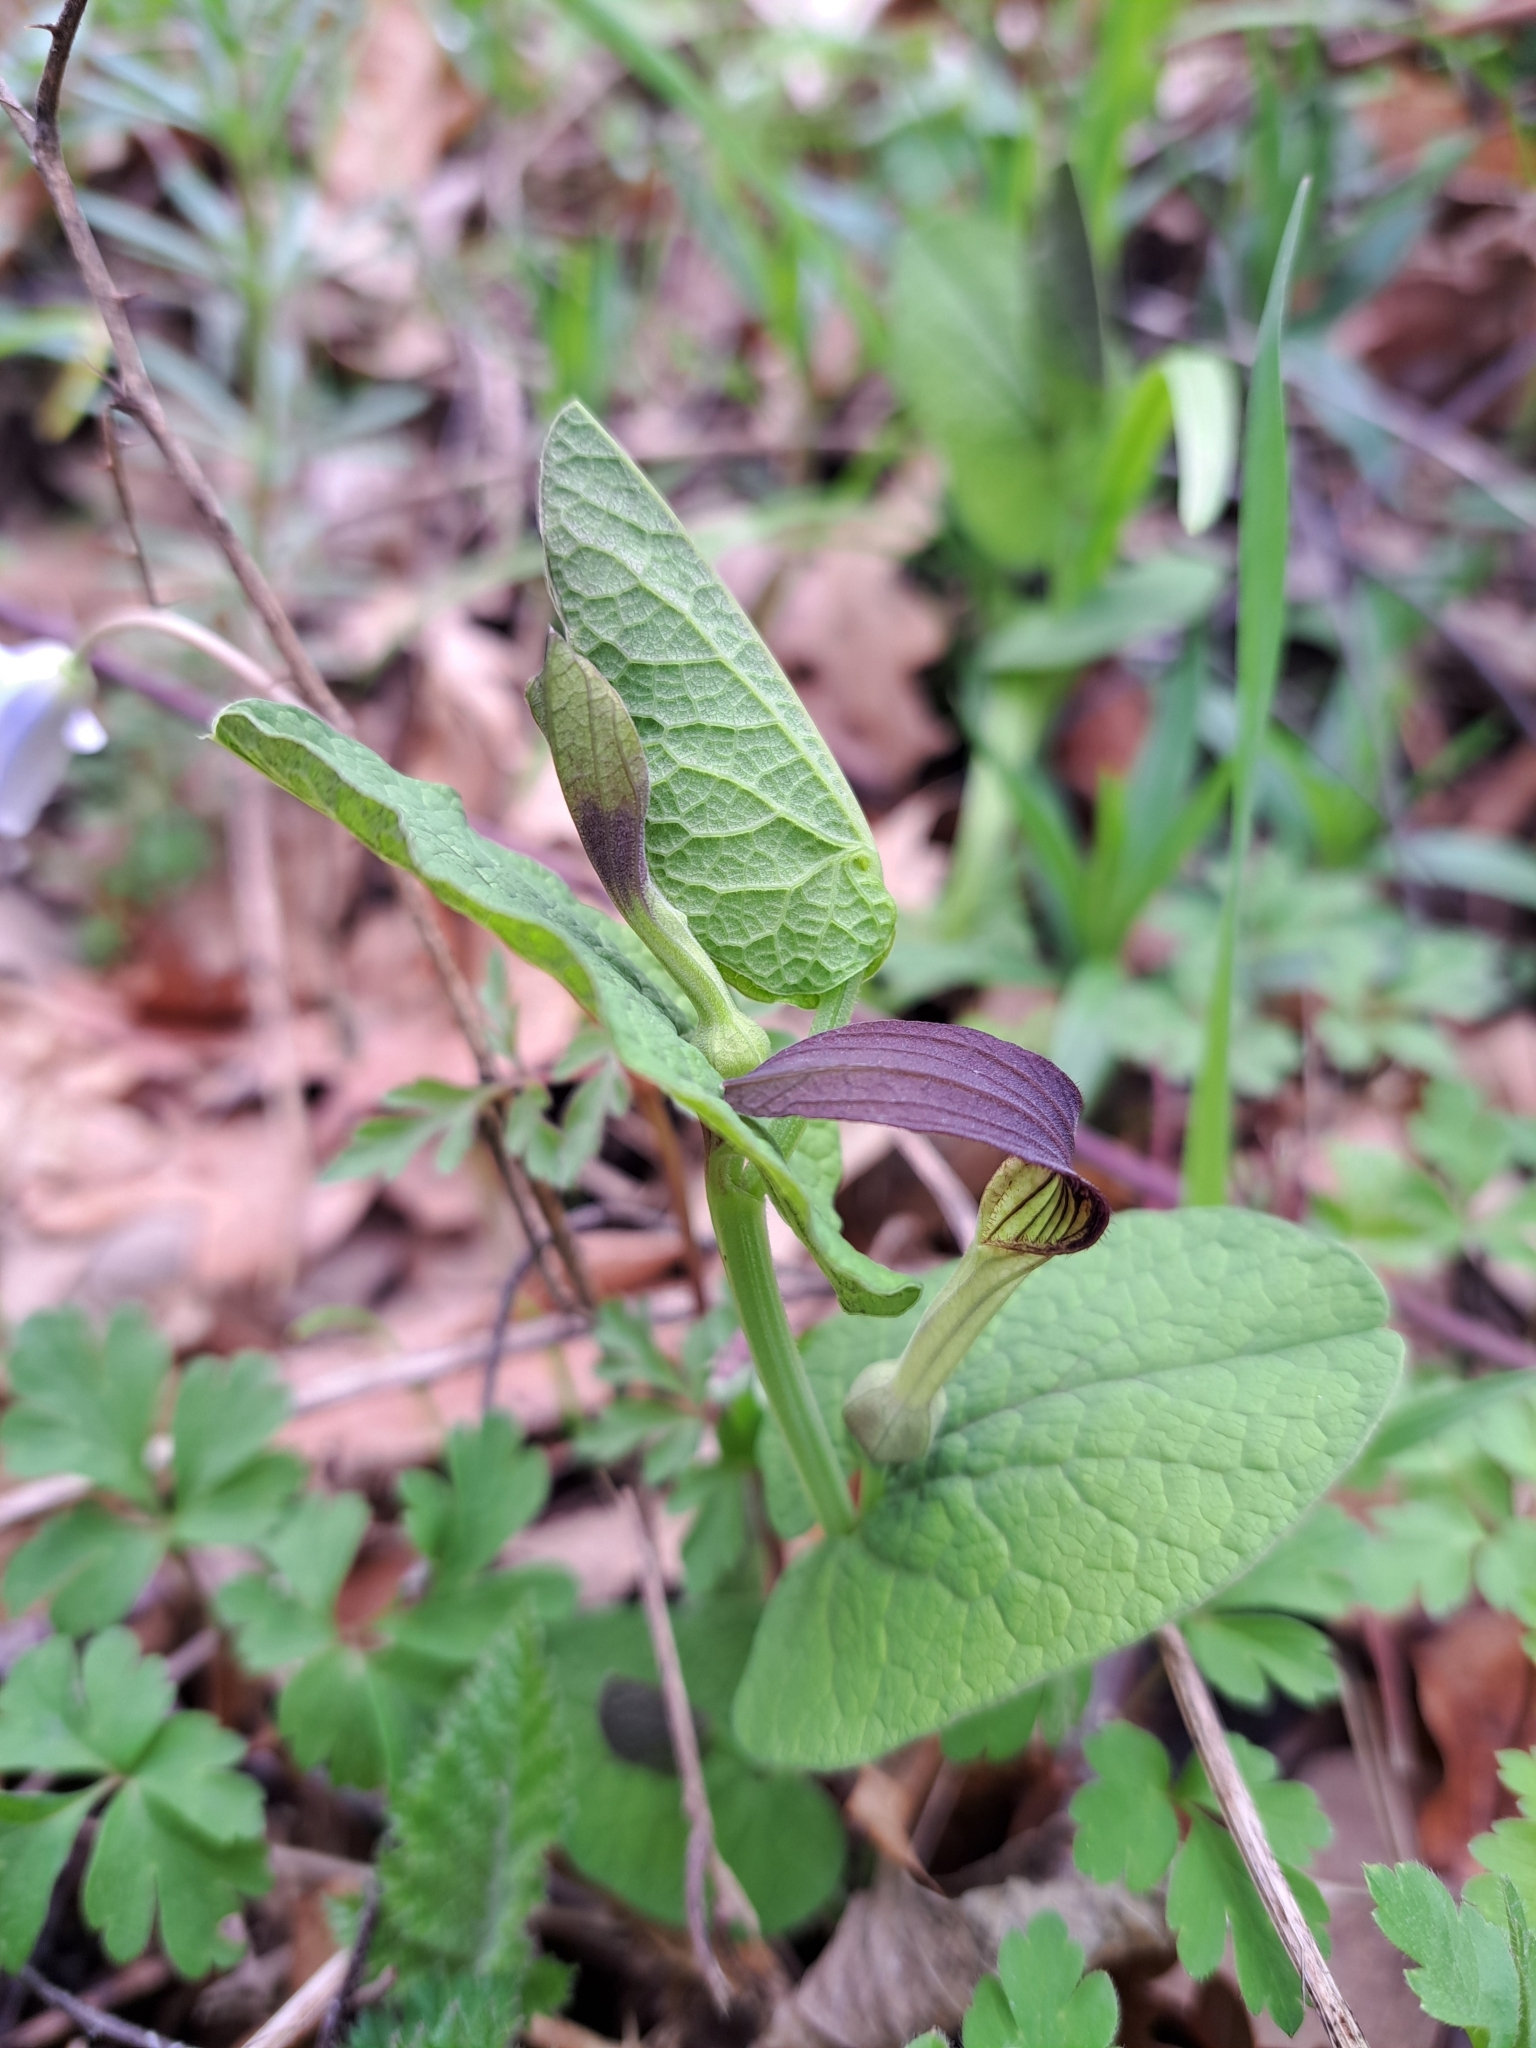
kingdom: Plantae
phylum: Tracheophyta
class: Magnoliopsida
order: Piperales
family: Aristolochiaceae
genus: Aristolochia
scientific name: Aristolochia rotunda
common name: Smearwort
